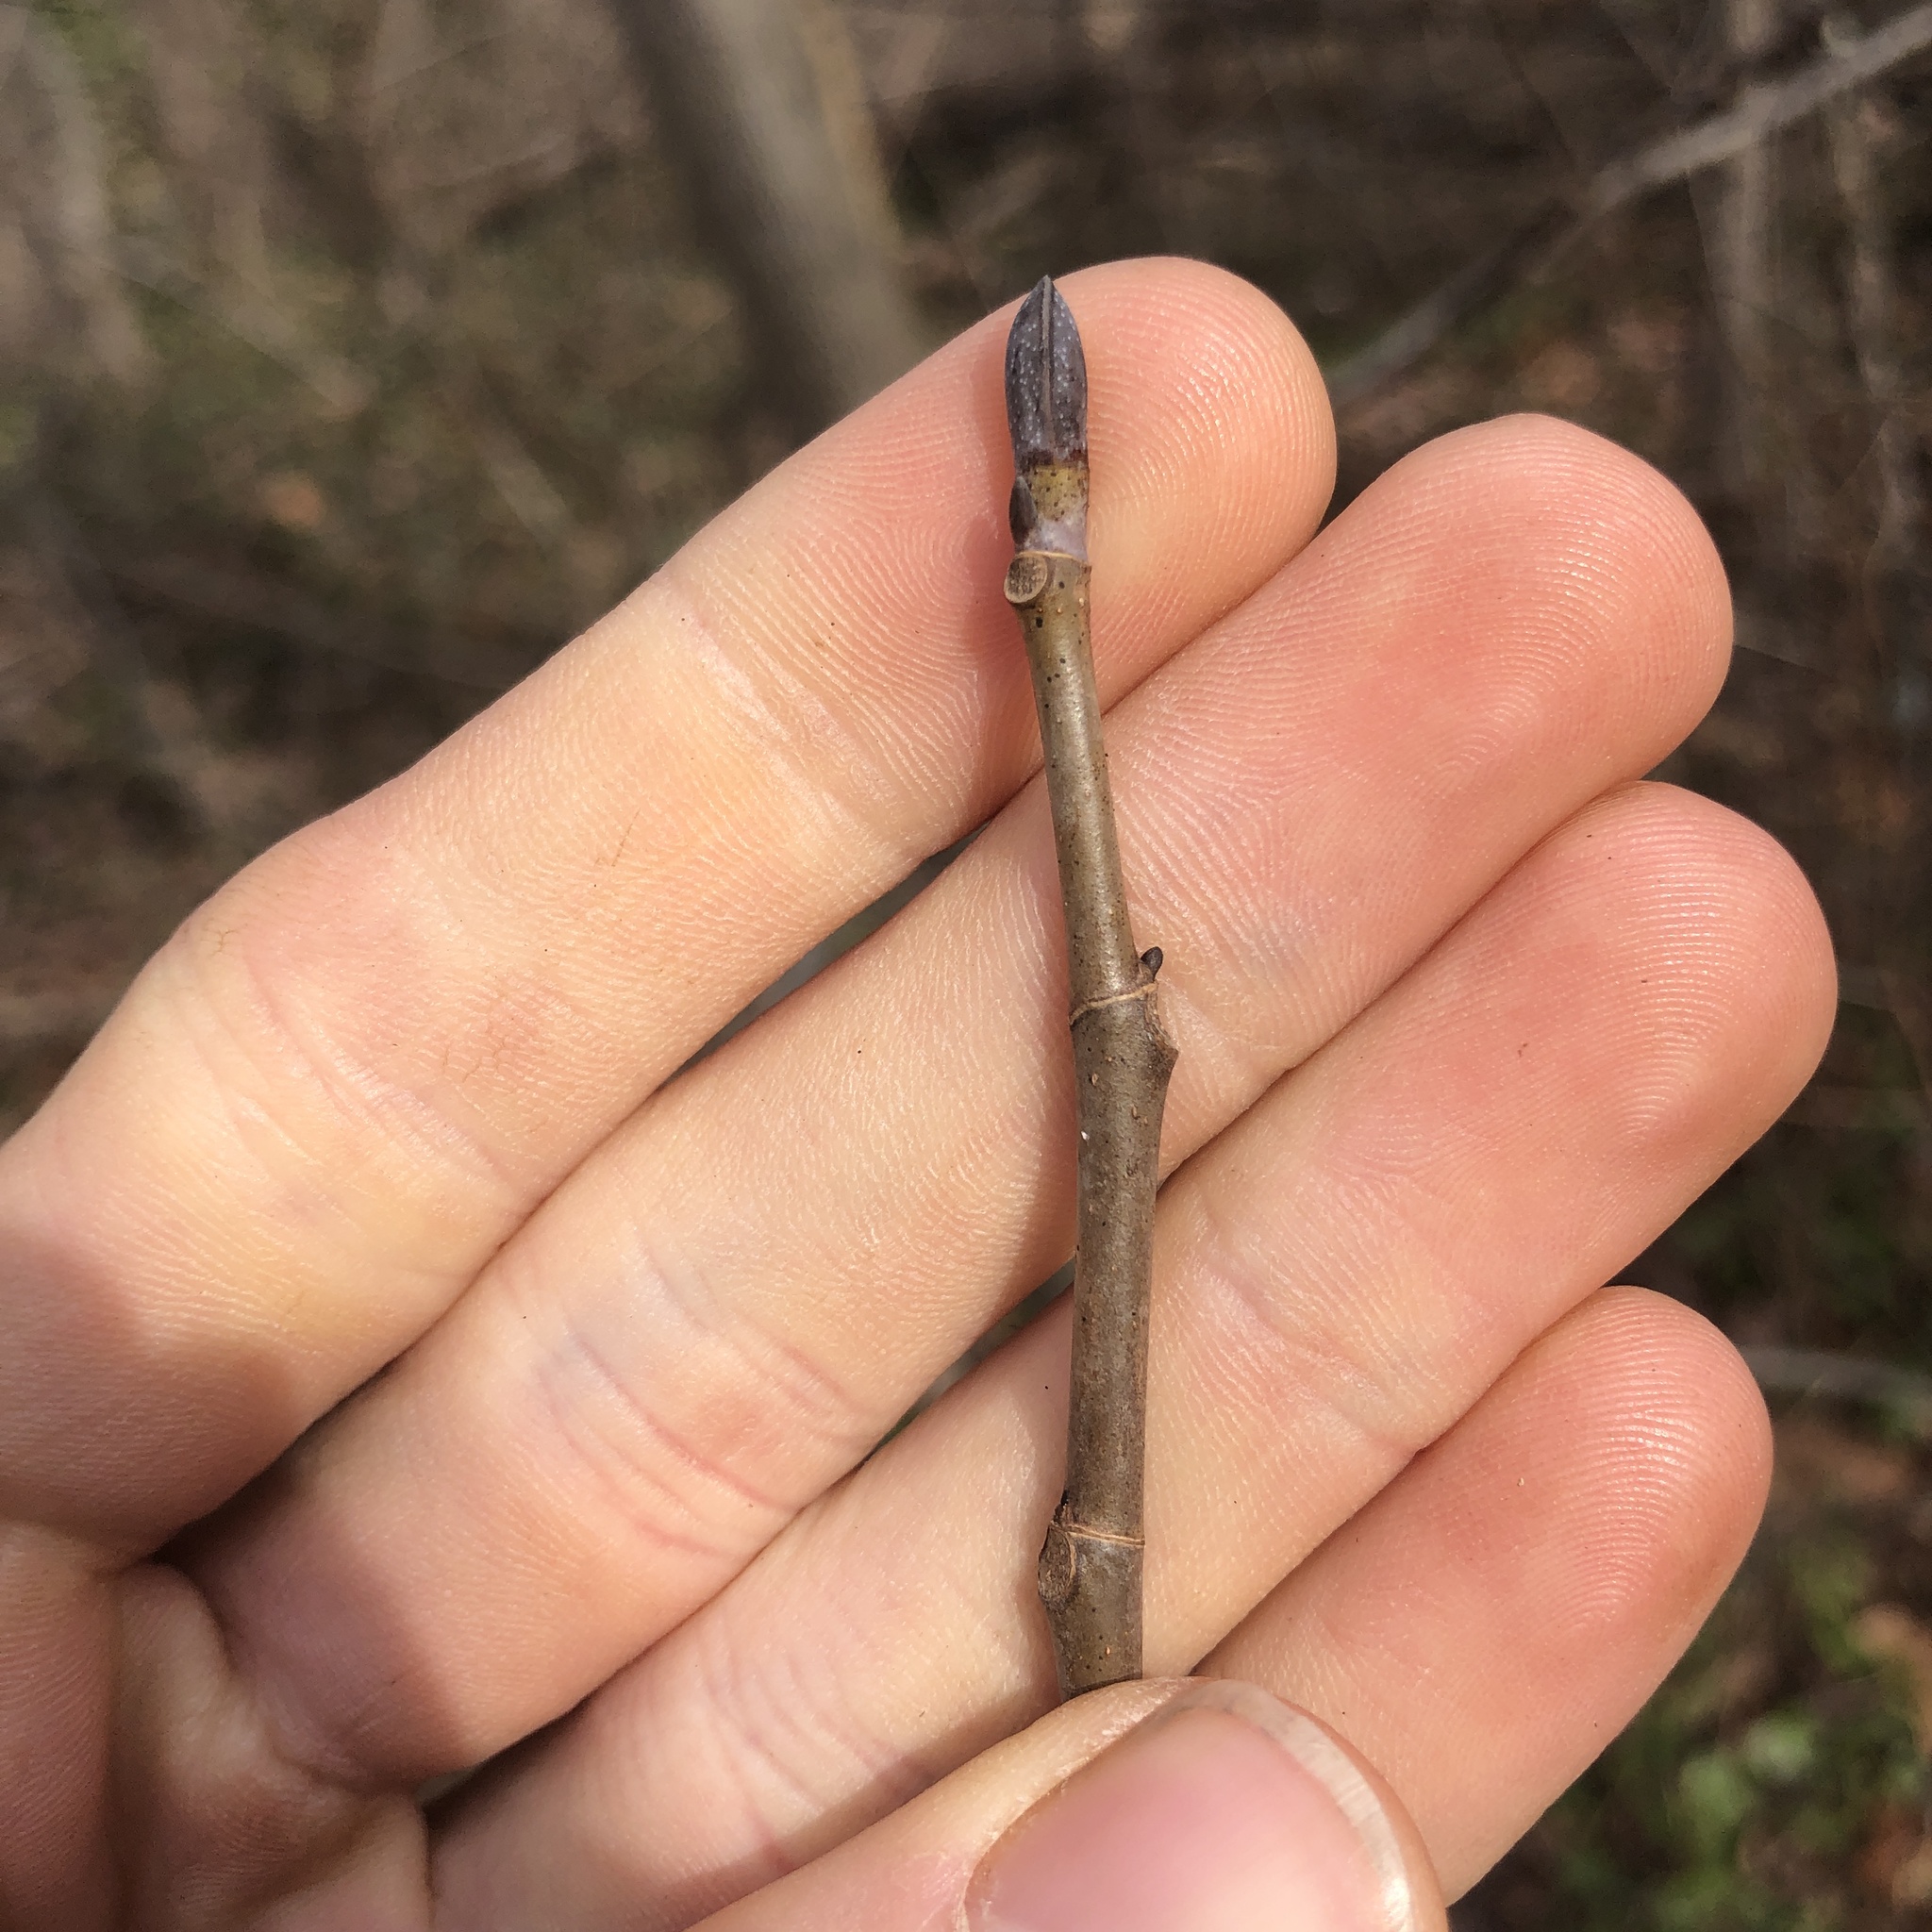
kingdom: Plantae
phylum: Tracheophyta
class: Magnoliopsida
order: Magnoliales
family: Magnoliaceae
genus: Liriodendron
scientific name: Liriodendron tulipifera
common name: Tulip tree
